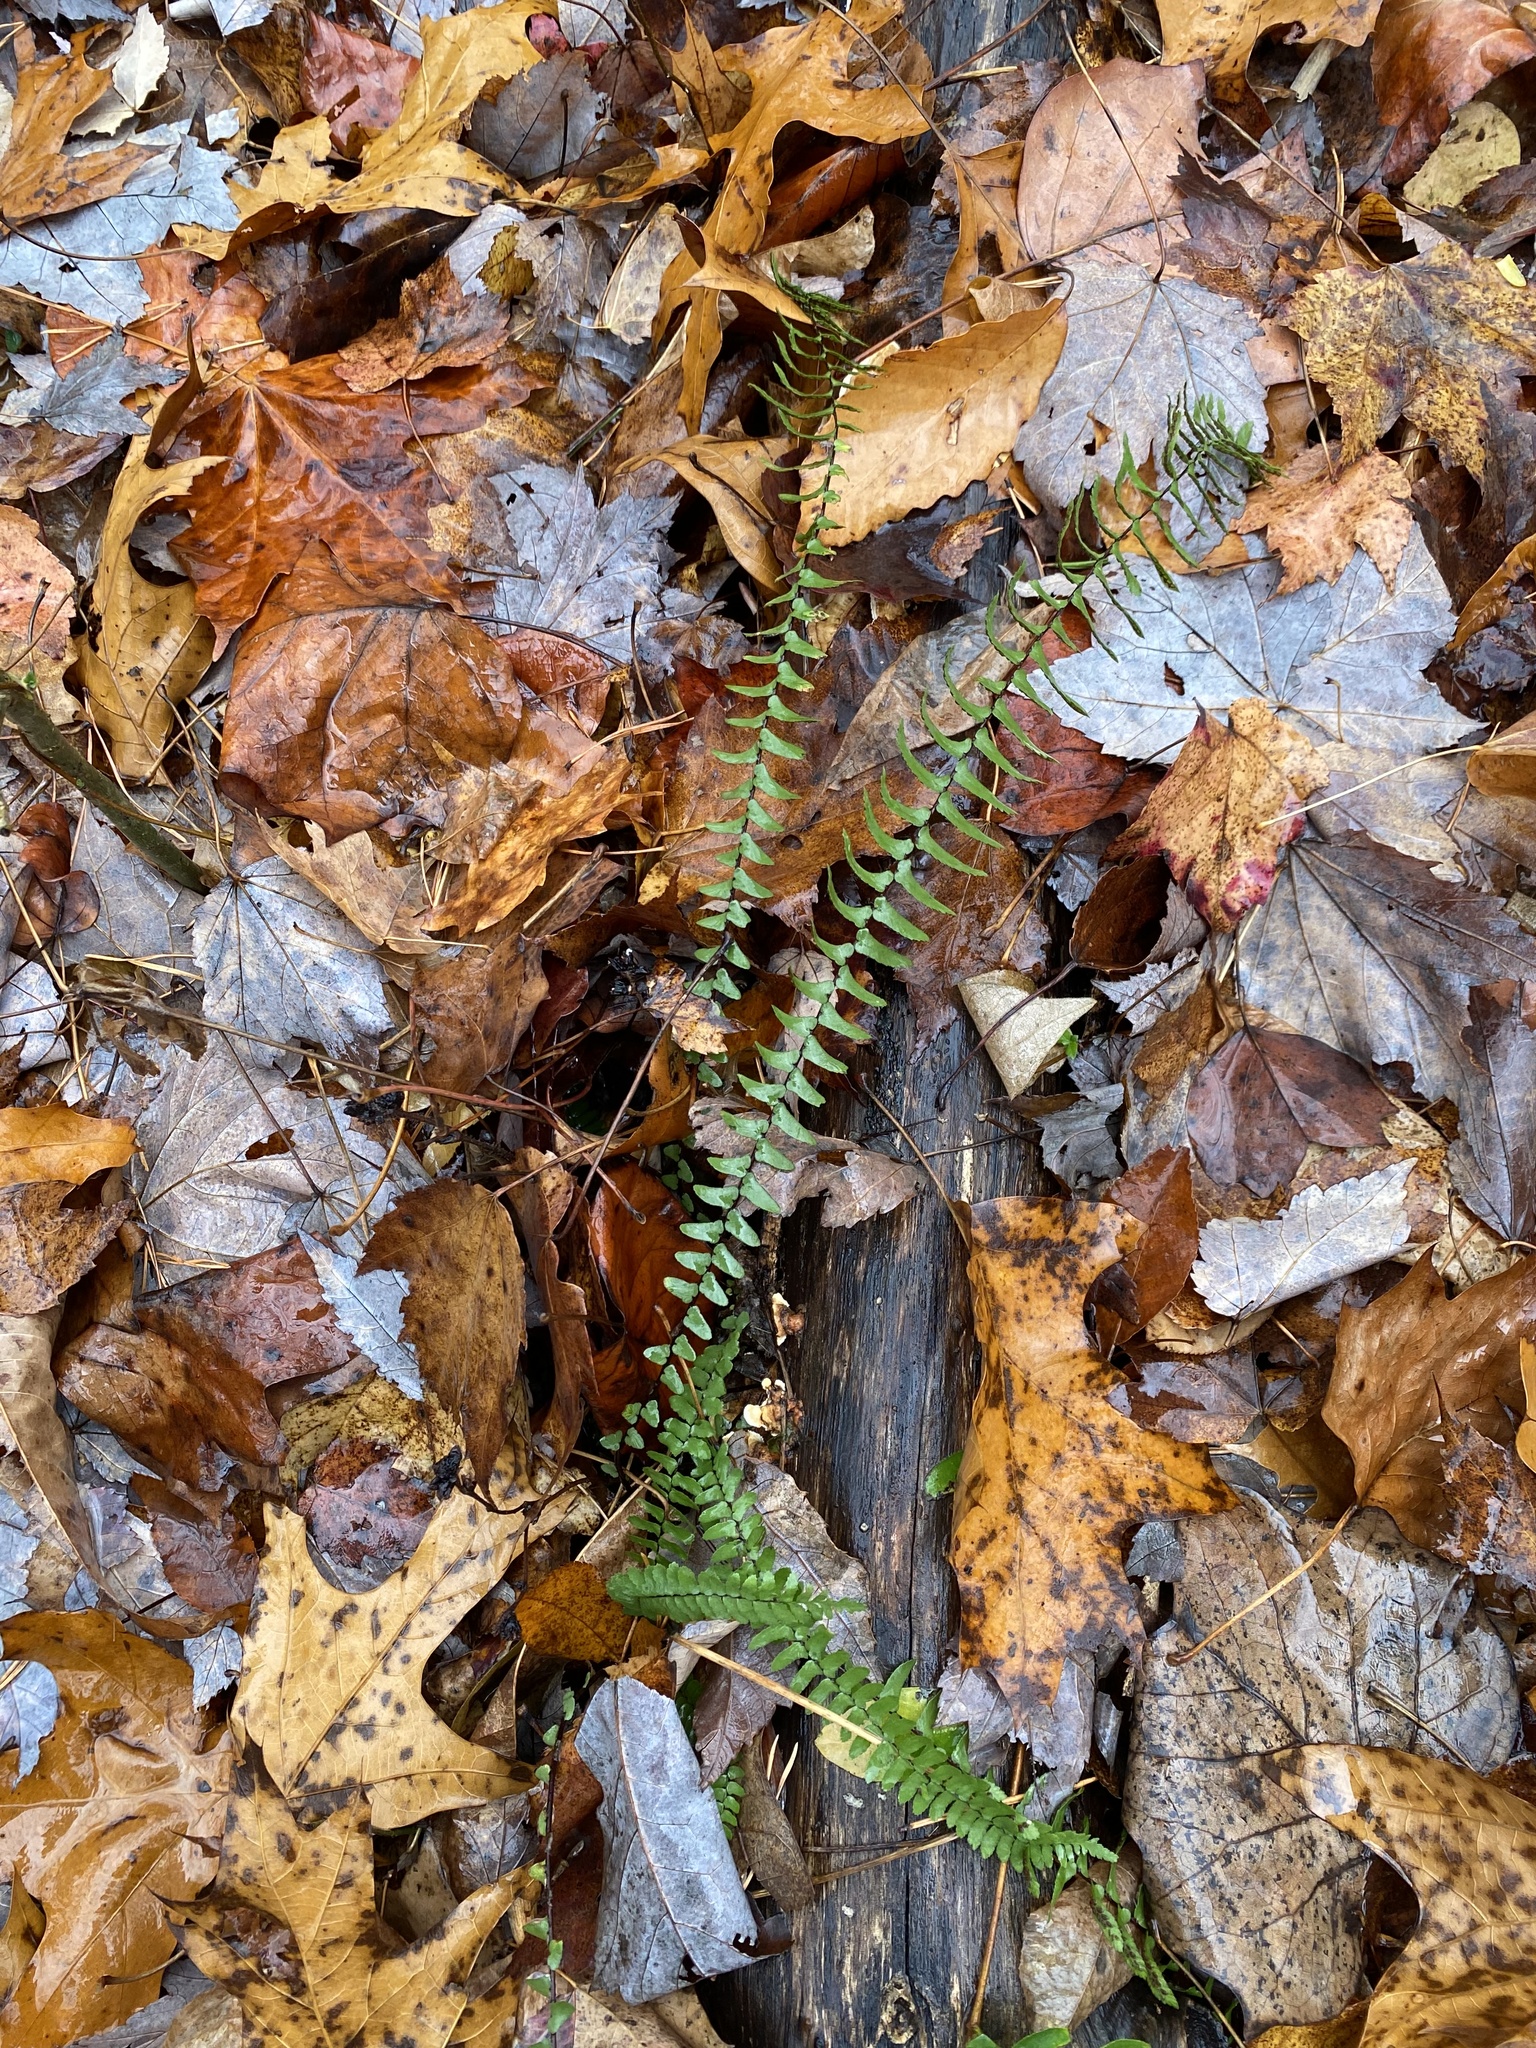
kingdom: Plantae
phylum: Tracheophyta
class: Polypodiopsida
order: Polypodiales
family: Aspleniaceae
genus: Asplenium
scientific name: Asplenium platyneuron
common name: Ebony spleenwort
